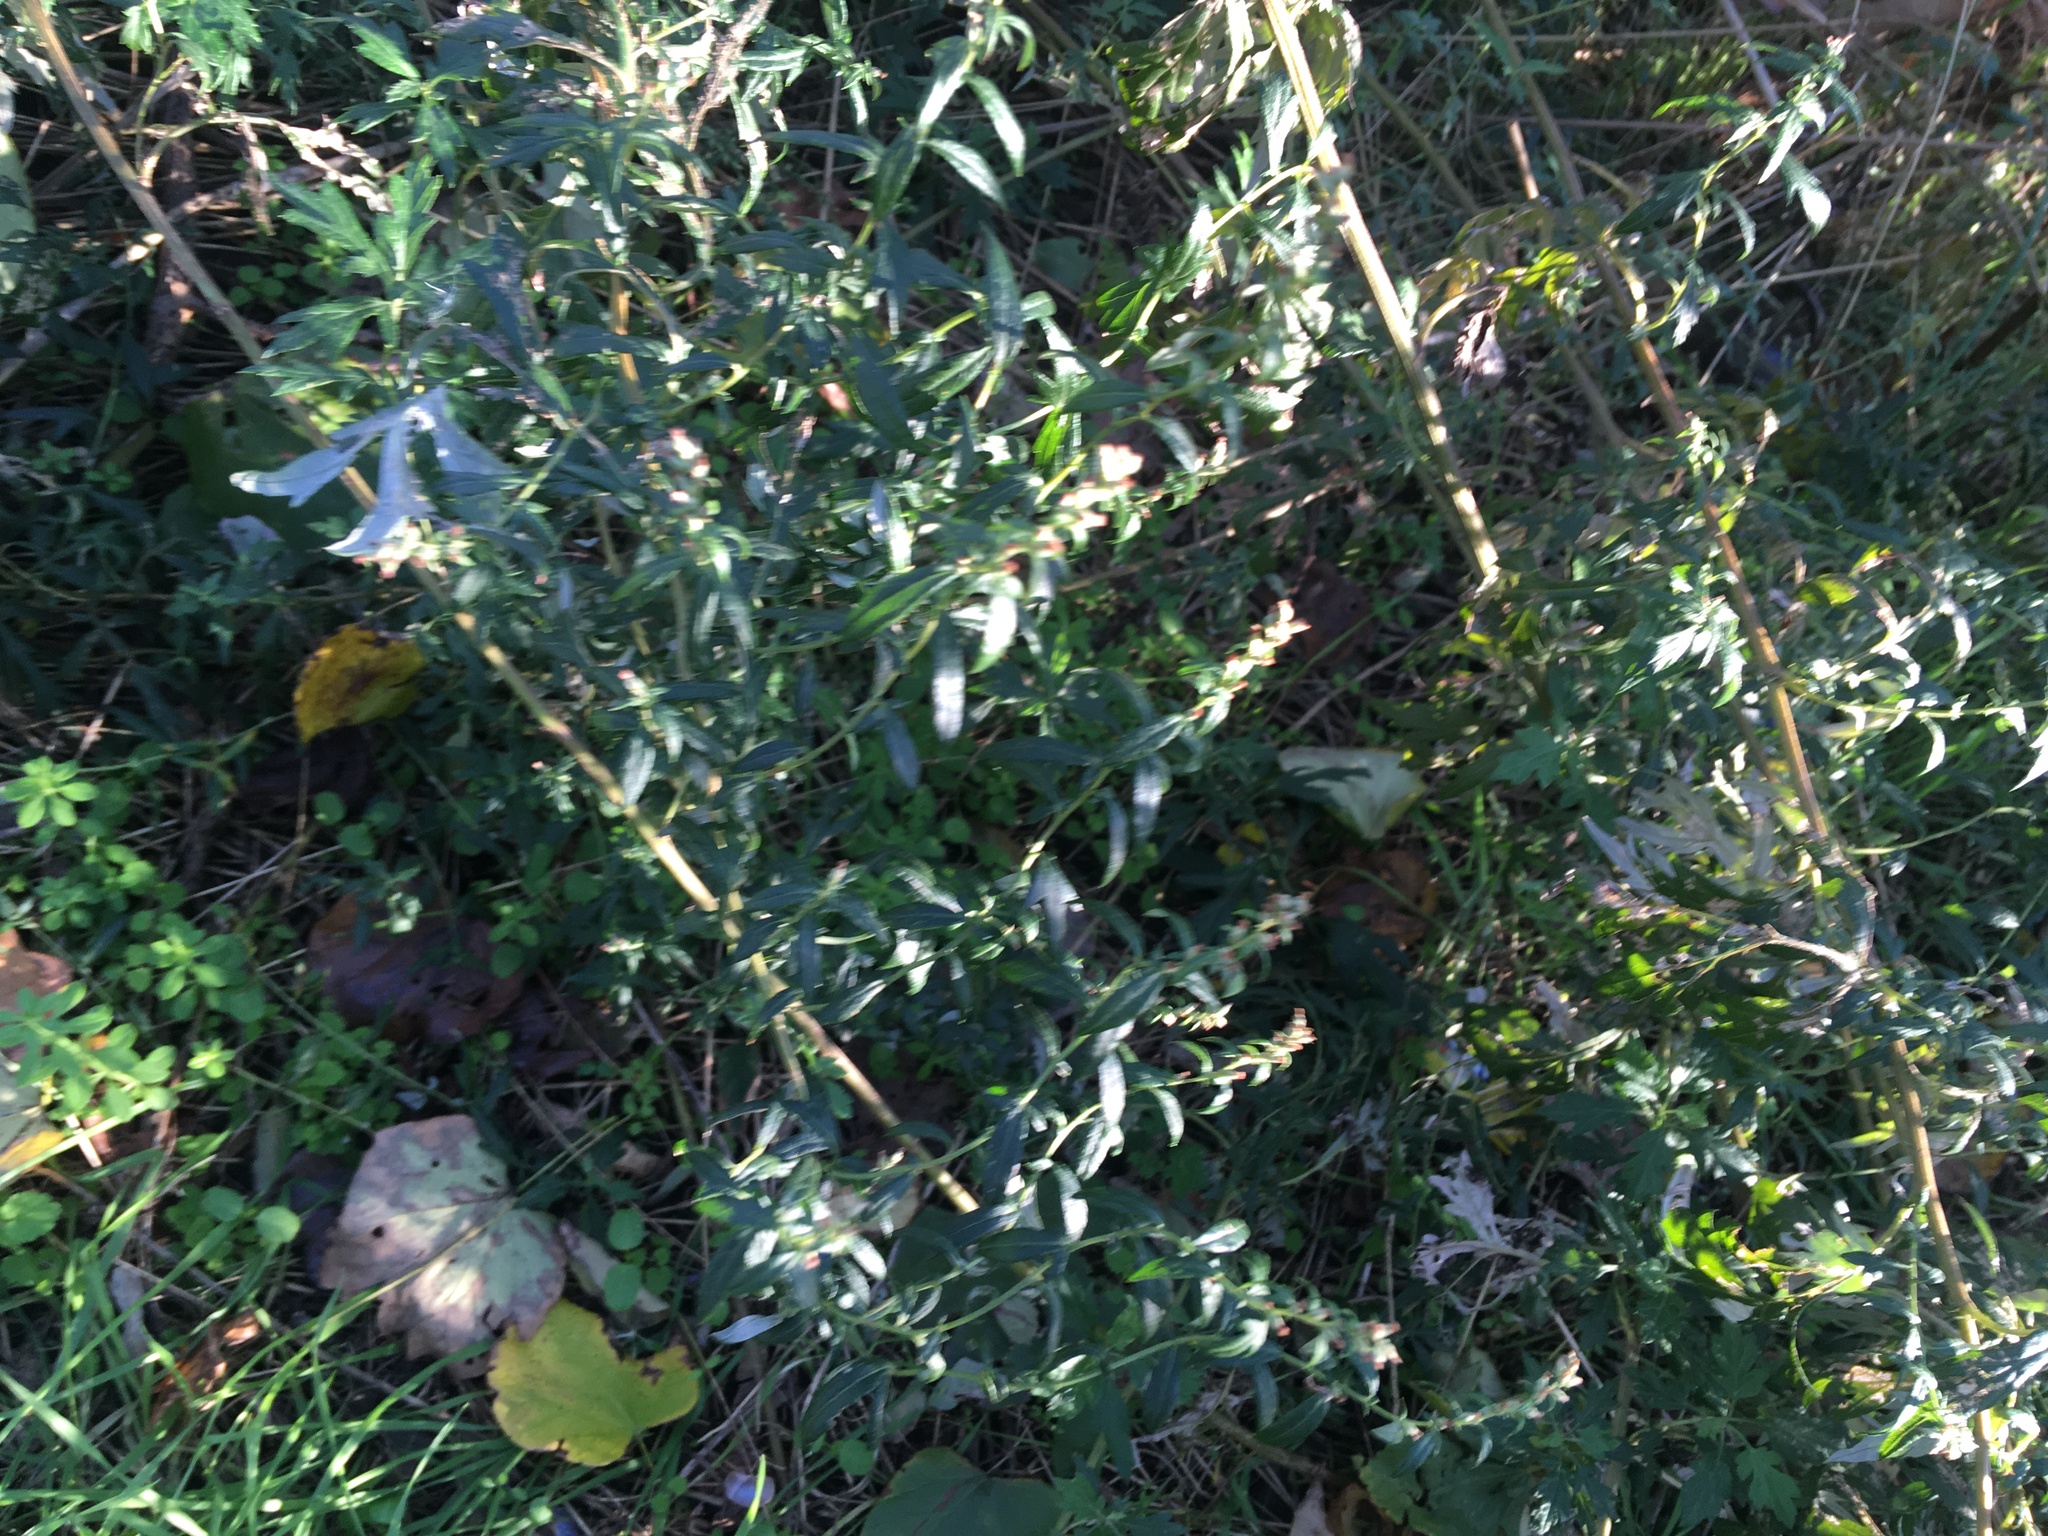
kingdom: Plantae
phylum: Tracheophyta
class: Magnoliopsida
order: Asterales
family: Asteraceae
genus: Artemisia
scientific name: Artemisia vulgaris
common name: Mugwort
